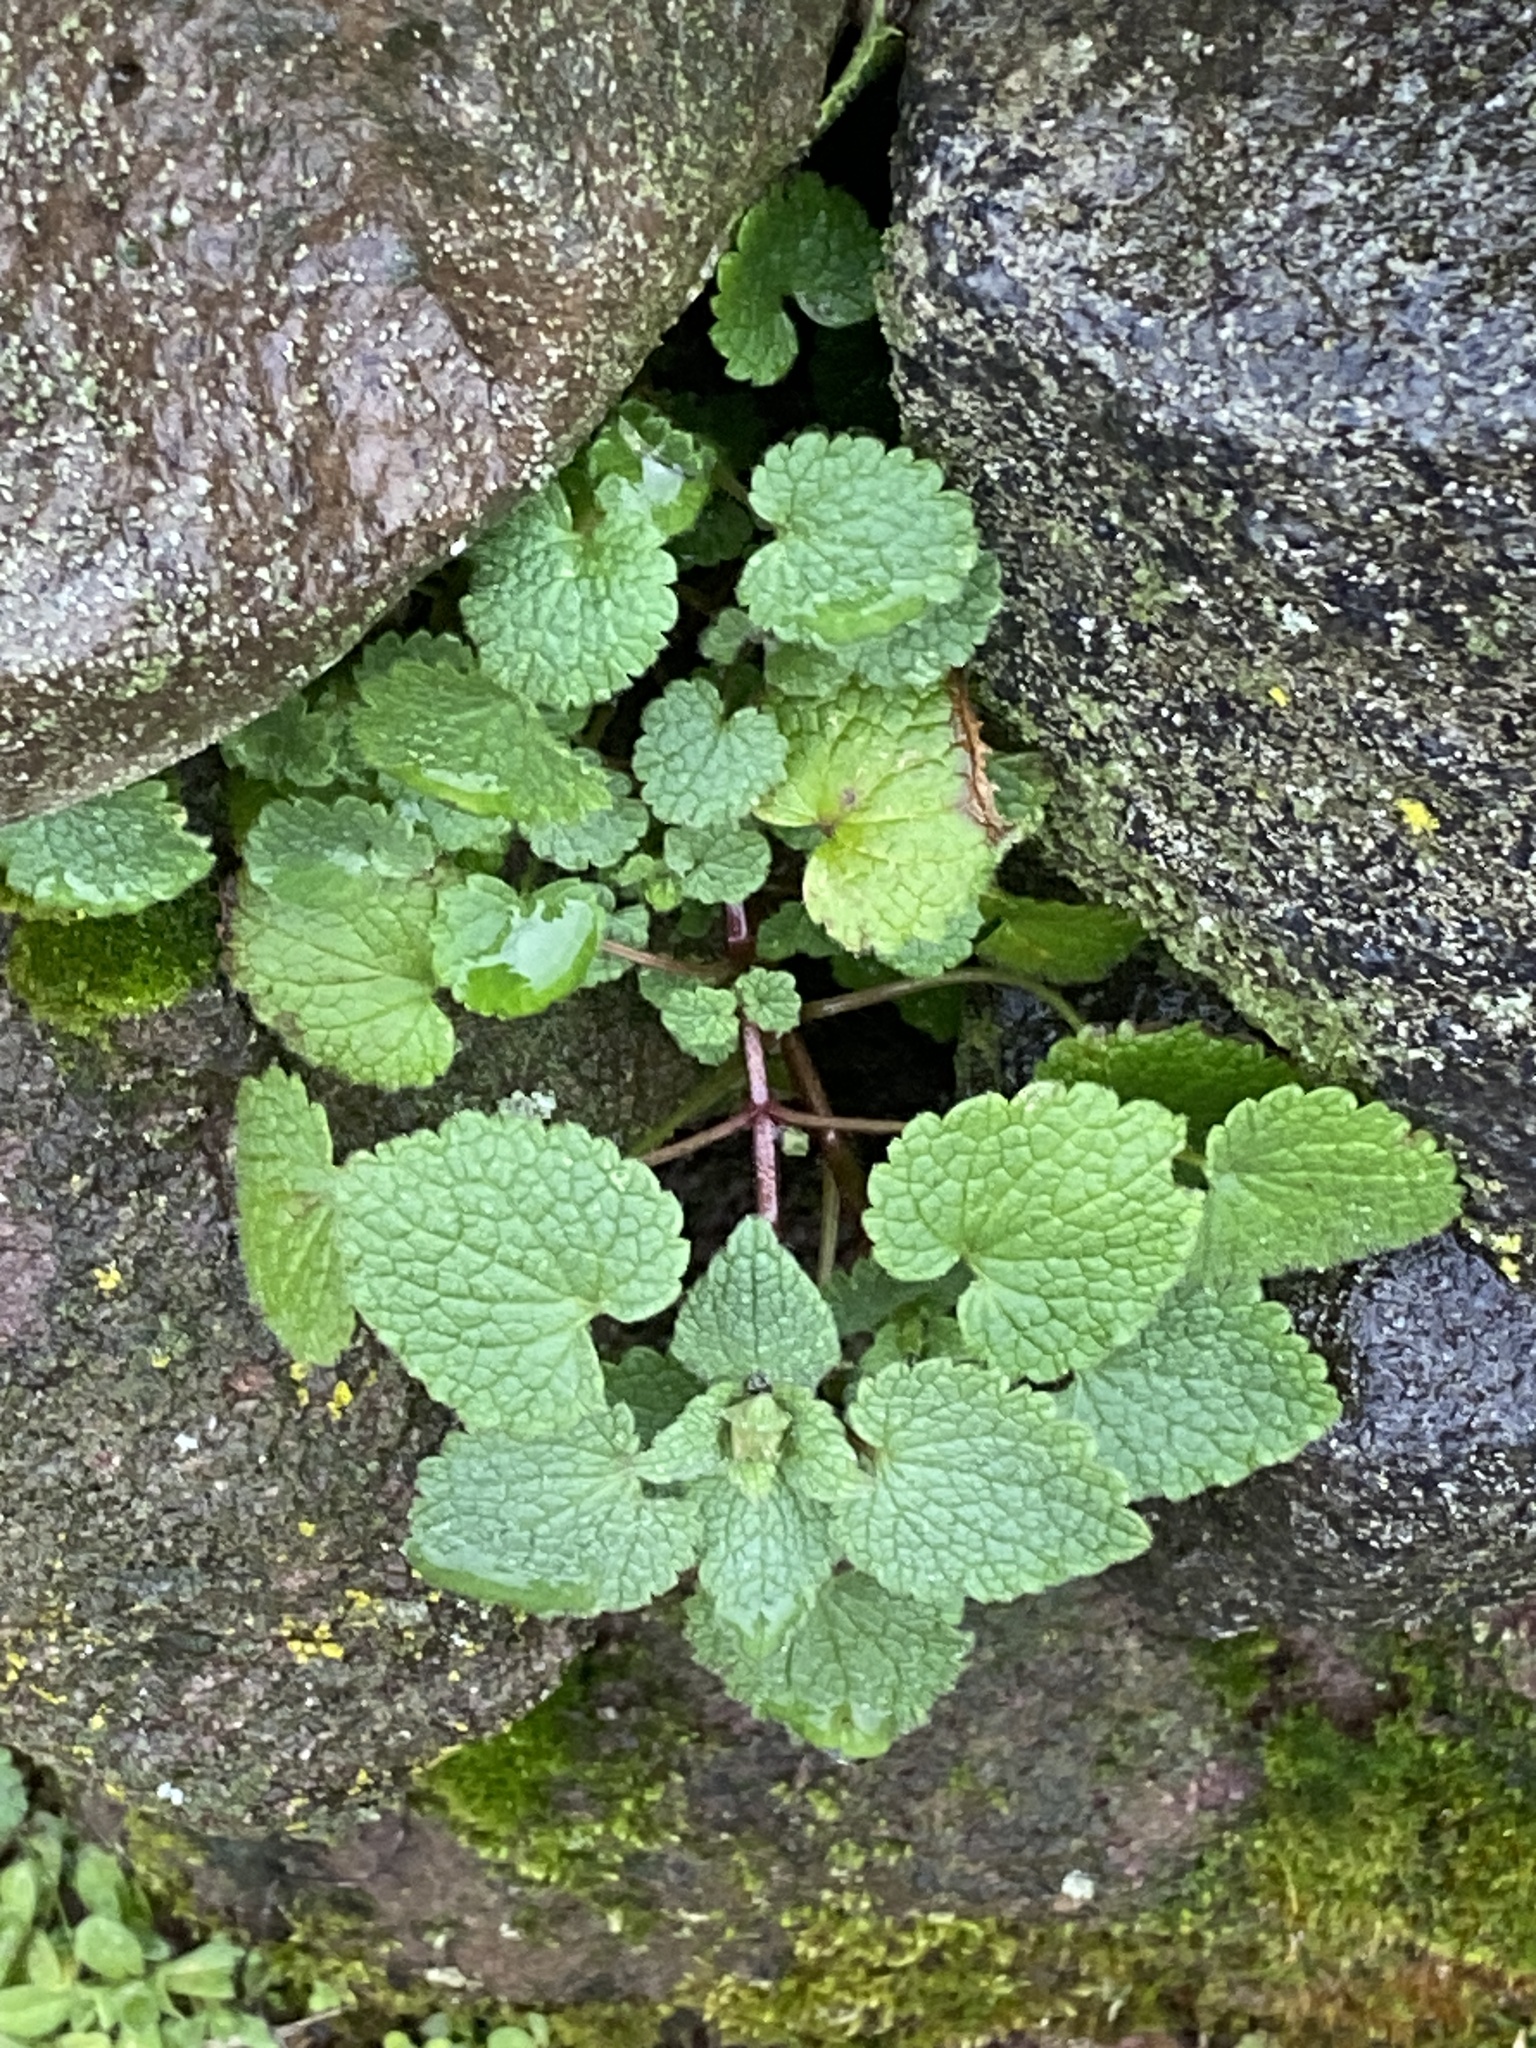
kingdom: Plantae
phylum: Tracheophyta
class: Magnoliopsida
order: Lamiales
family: Lamiaceae
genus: Lamium
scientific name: Lamium purpureum
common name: Red dead-nettle
